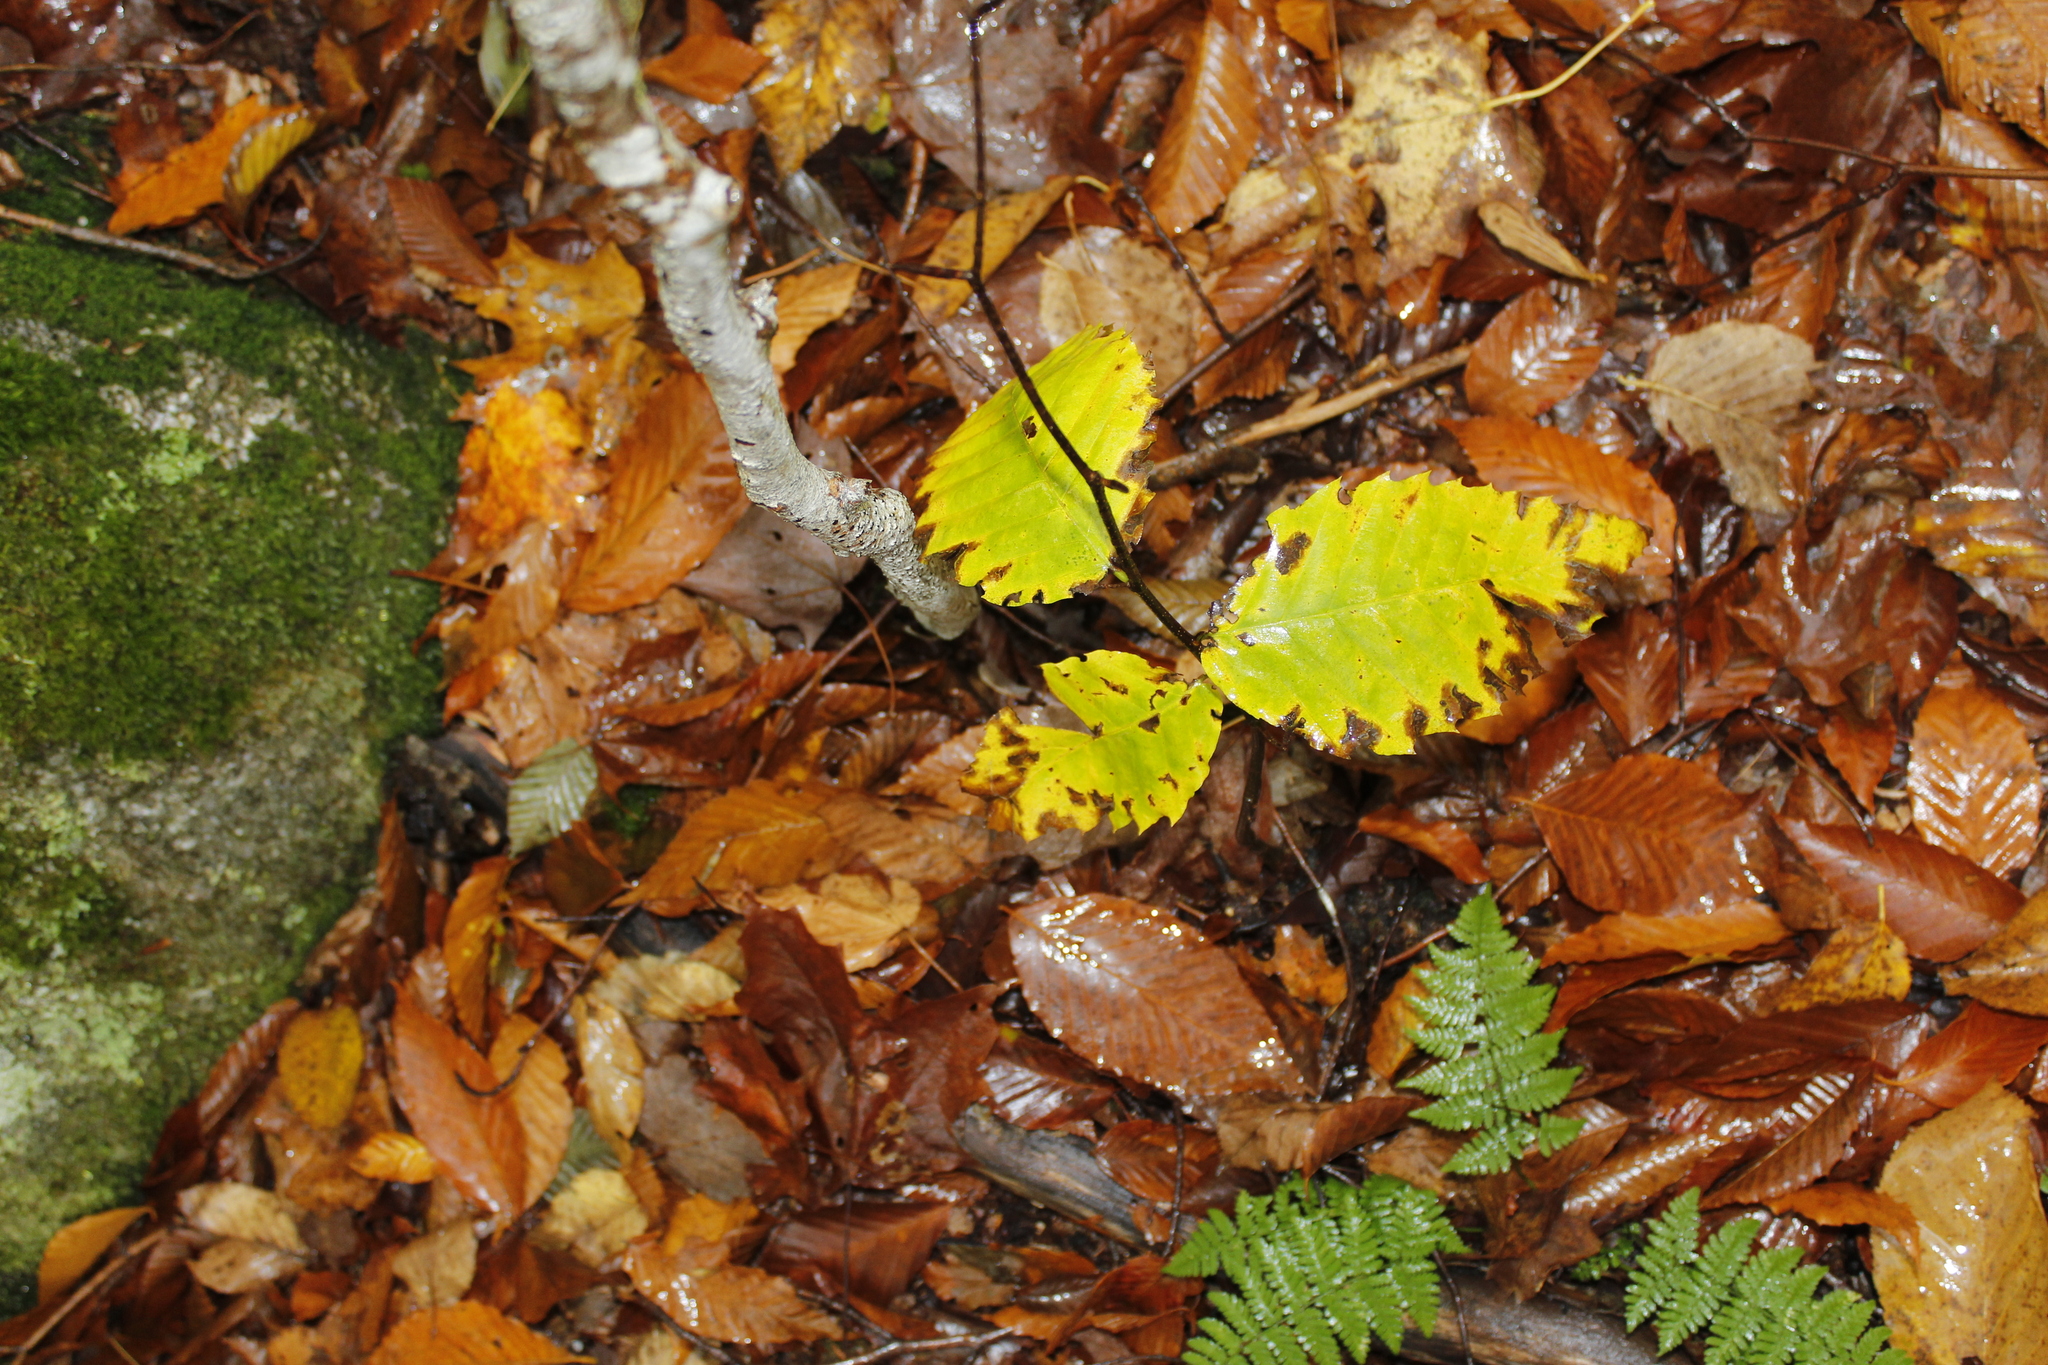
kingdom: Plantae
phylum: Tracheophyta
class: Magnoliopsida
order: Fagales
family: Fagaceae
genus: Fagus
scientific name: Fagus grandifolia
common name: American beech
